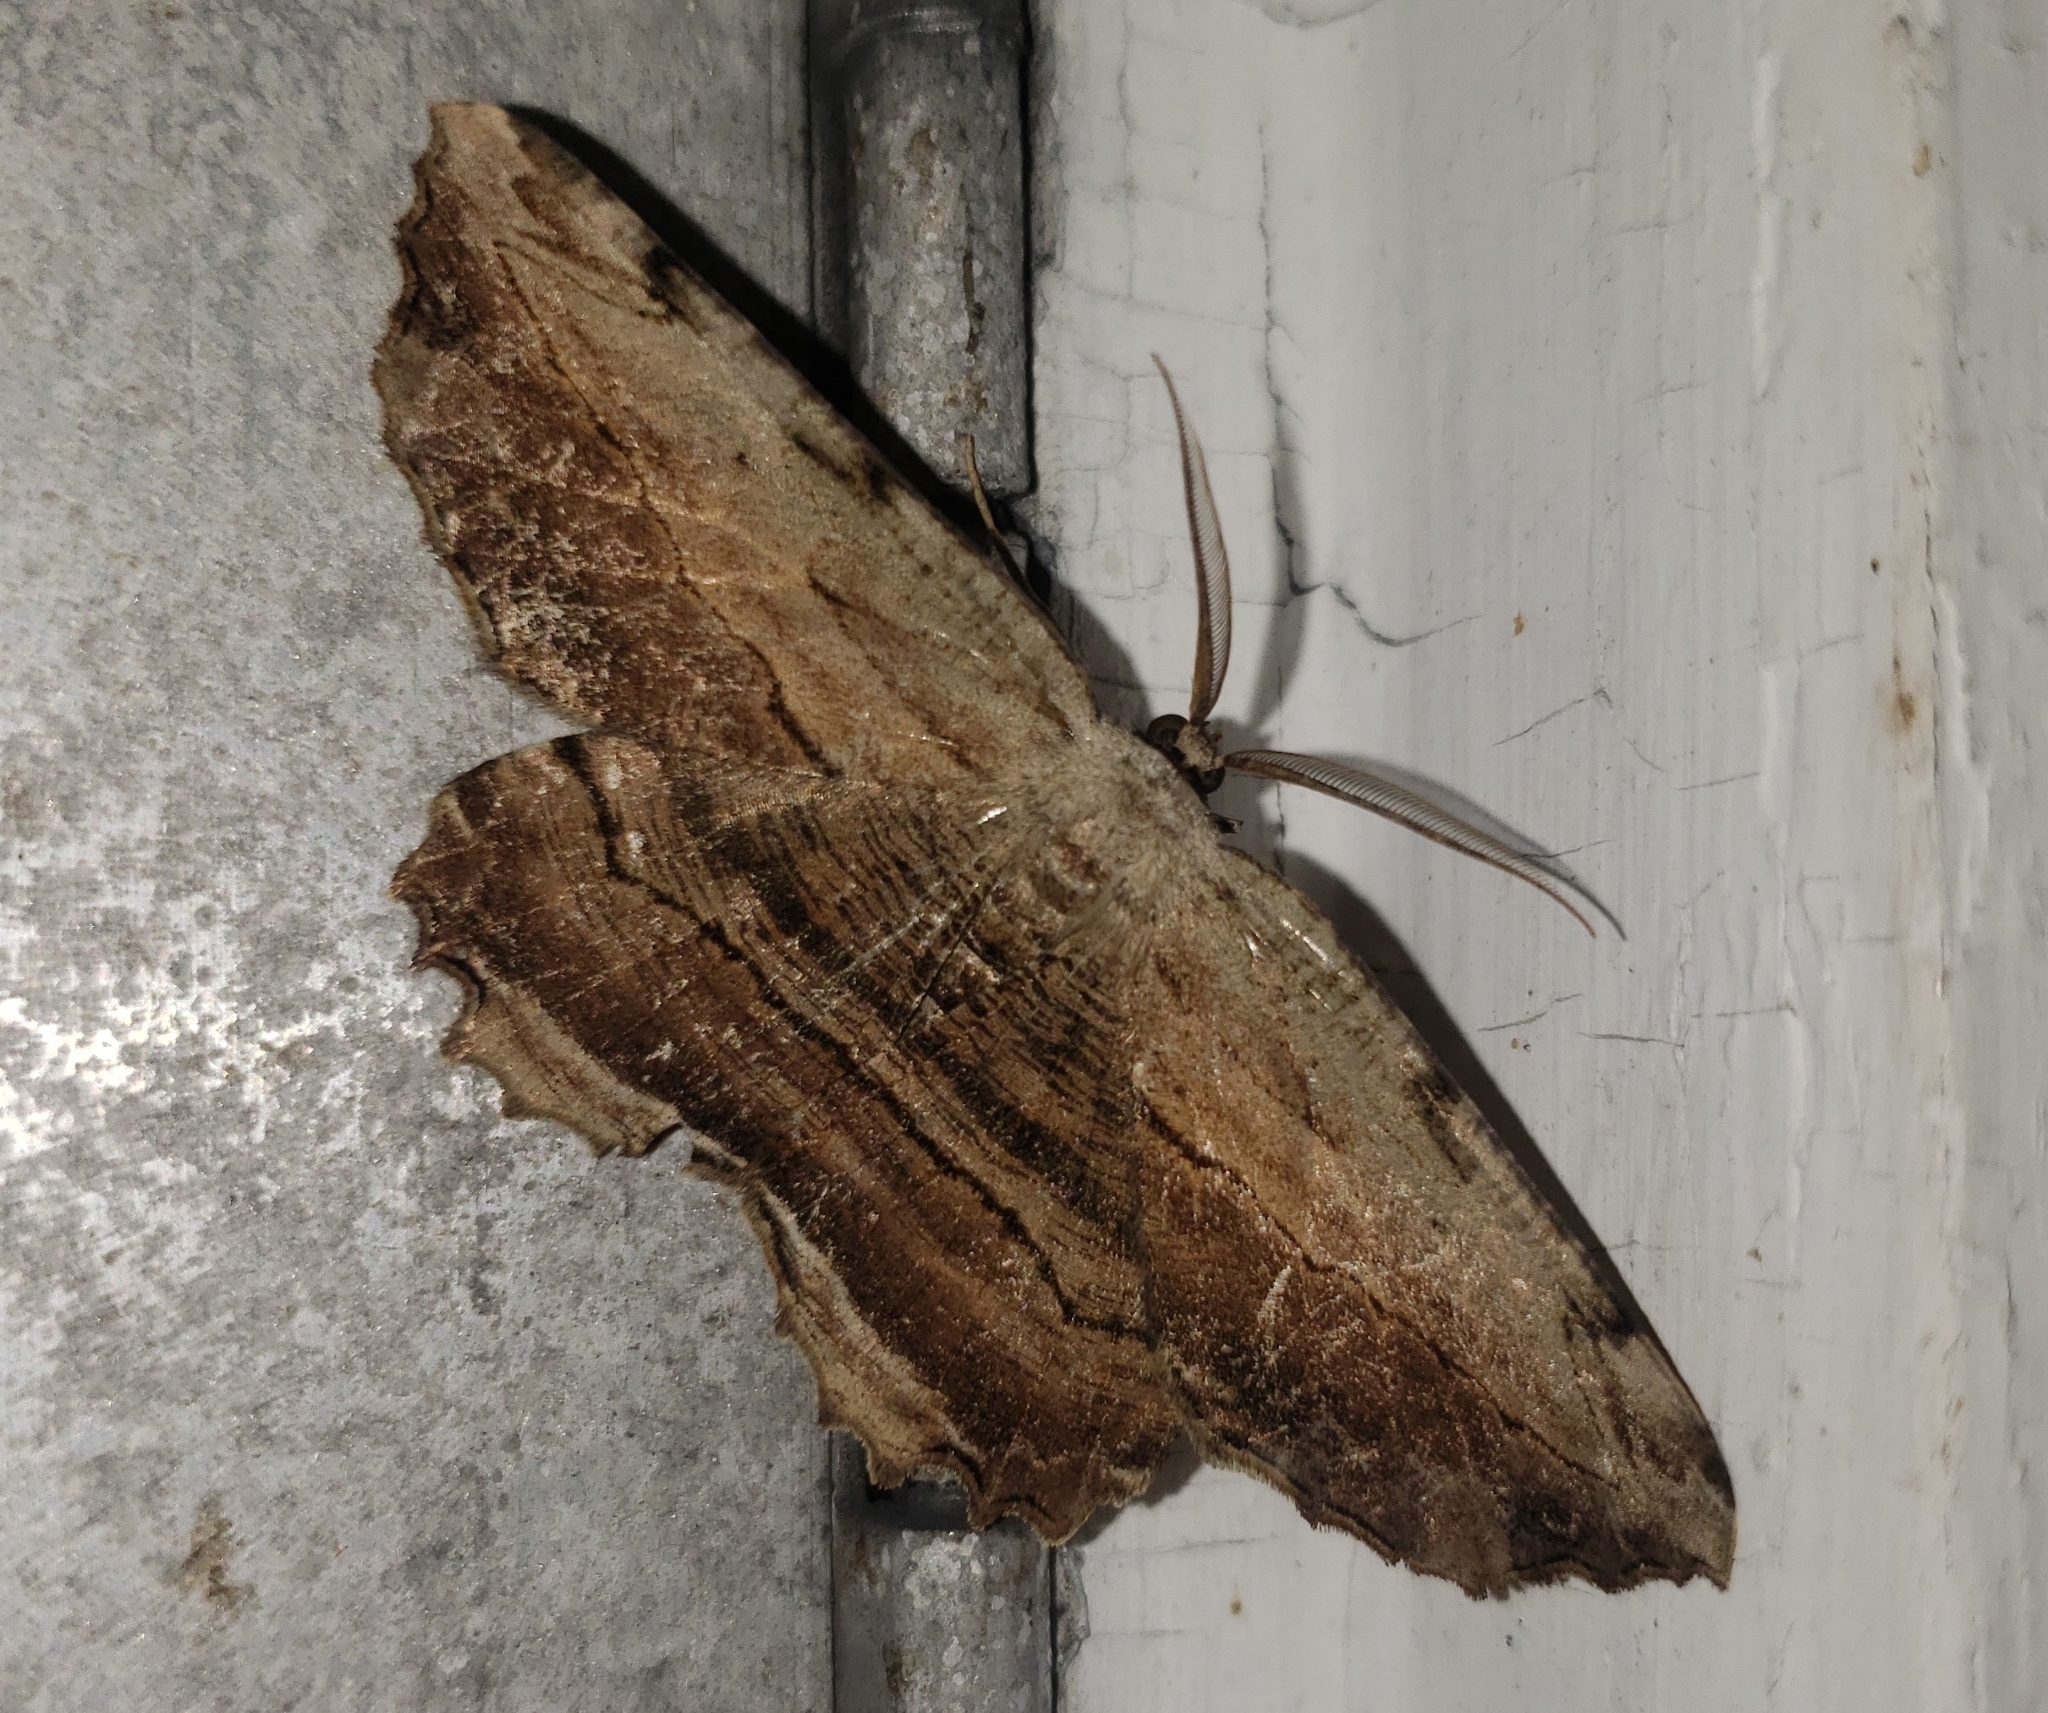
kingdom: Animalia
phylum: Arthropoda
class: Insecta
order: Lepidoptera
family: Geometridae
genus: Lytrosis
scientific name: Lytrosis unitaria
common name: Common lytrosis
